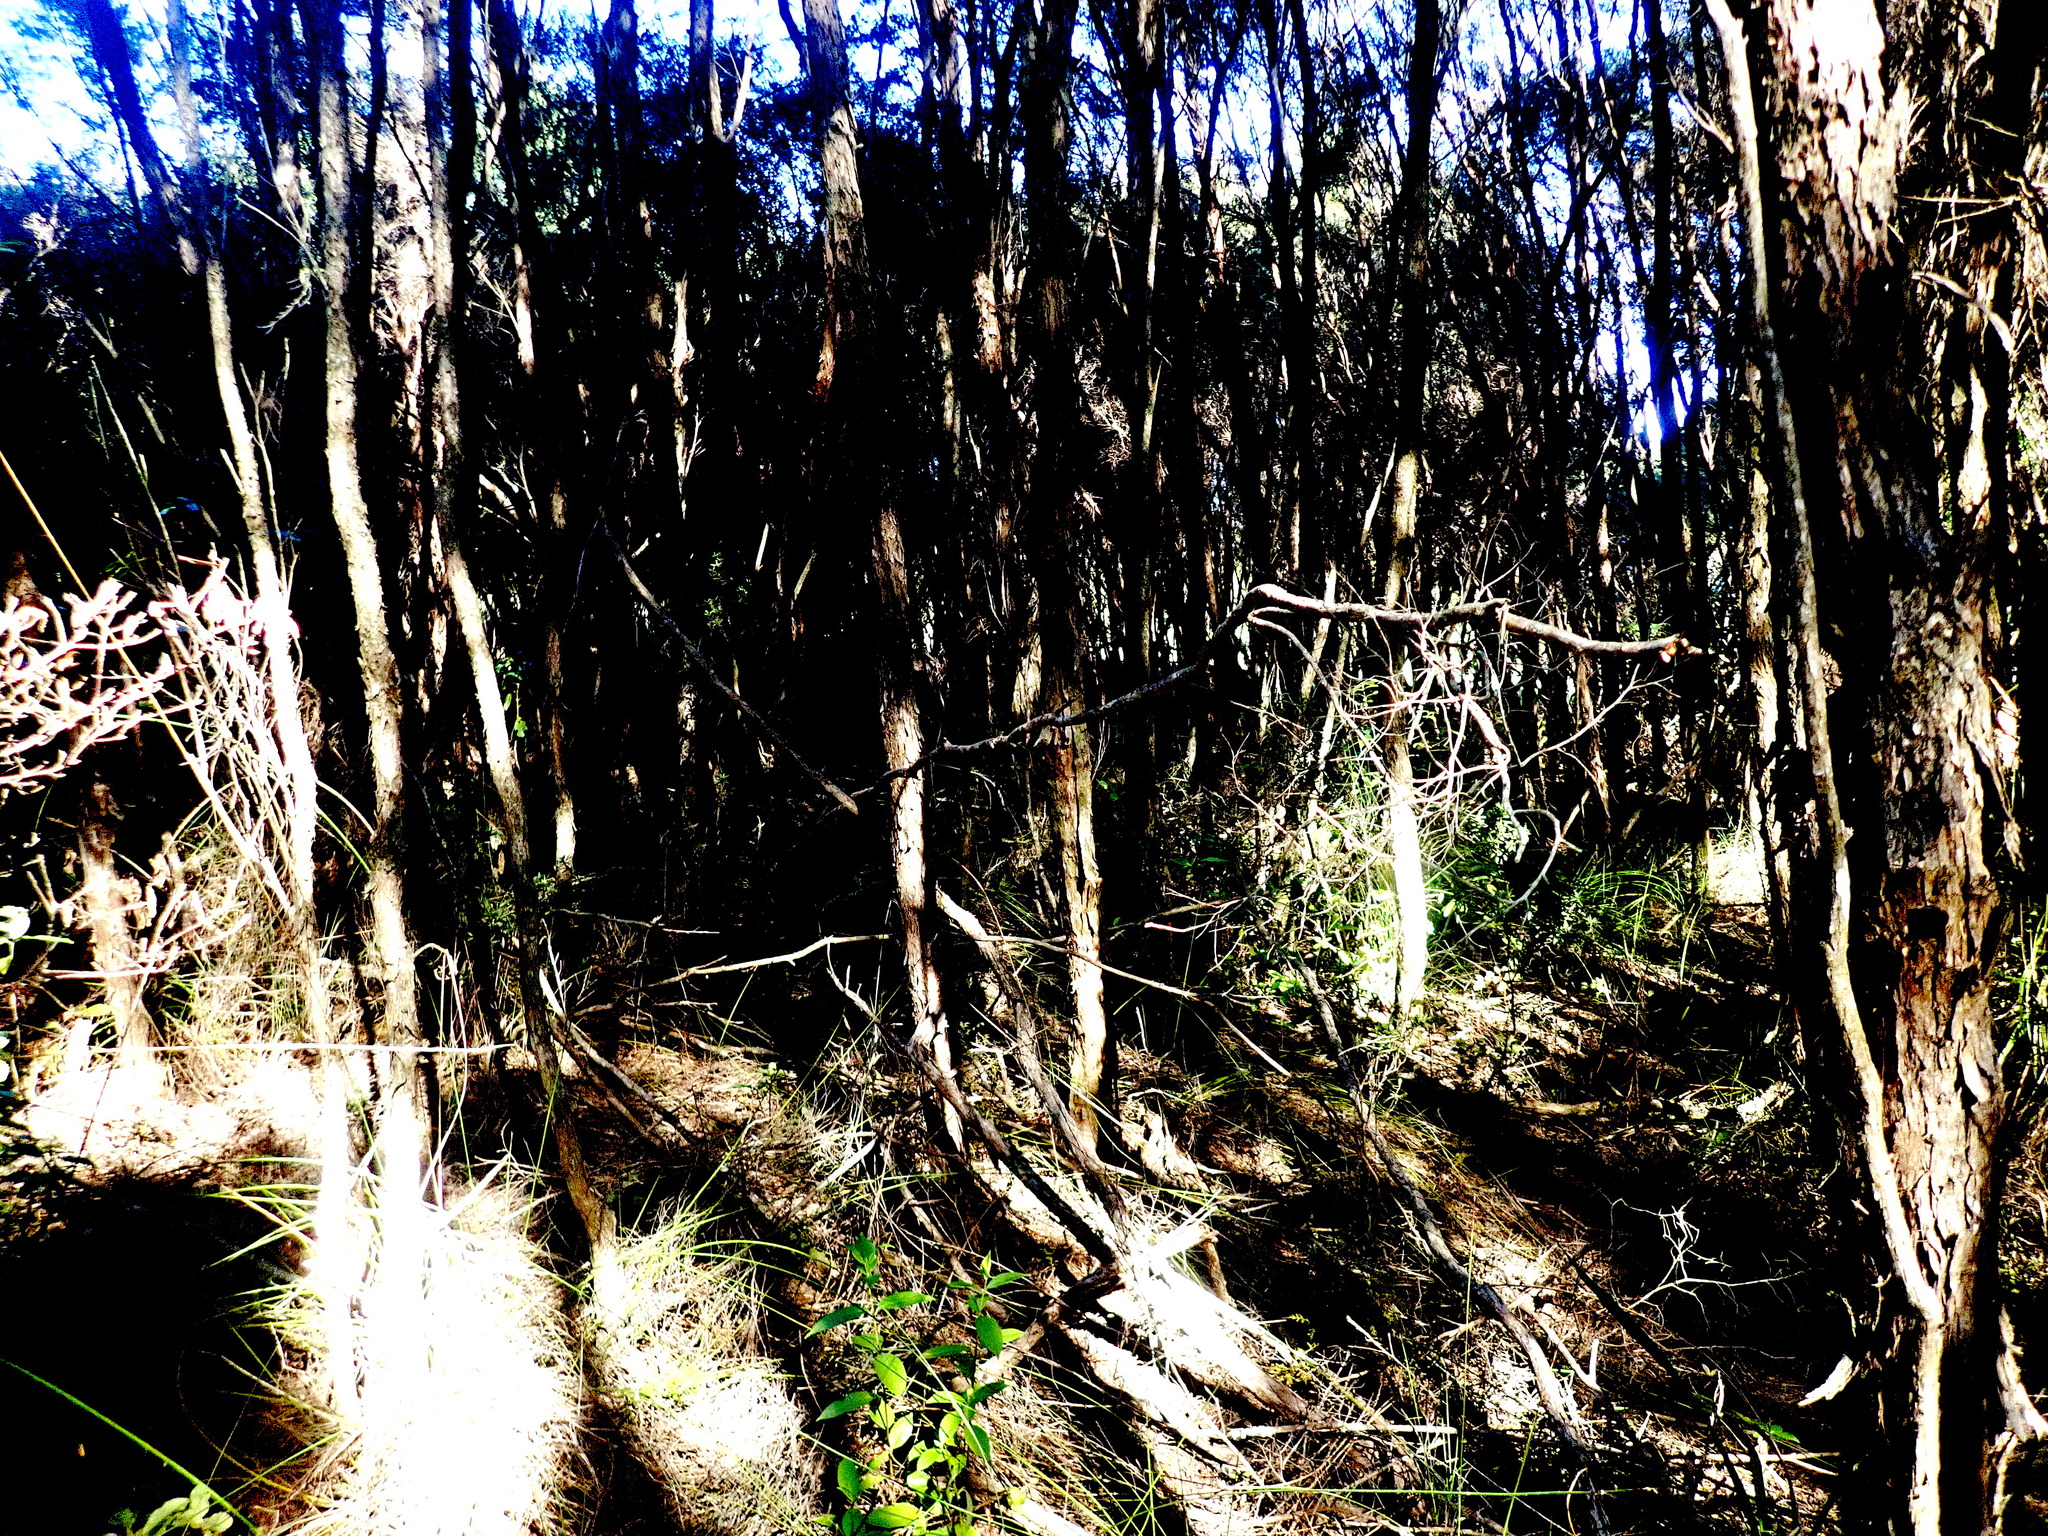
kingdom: Plantae
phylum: Tracheophyta
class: Magnoliopsida
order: Gentianales
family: Loganiaceae
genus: Geniostoma
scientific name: Geniostoma ligustrifolium
